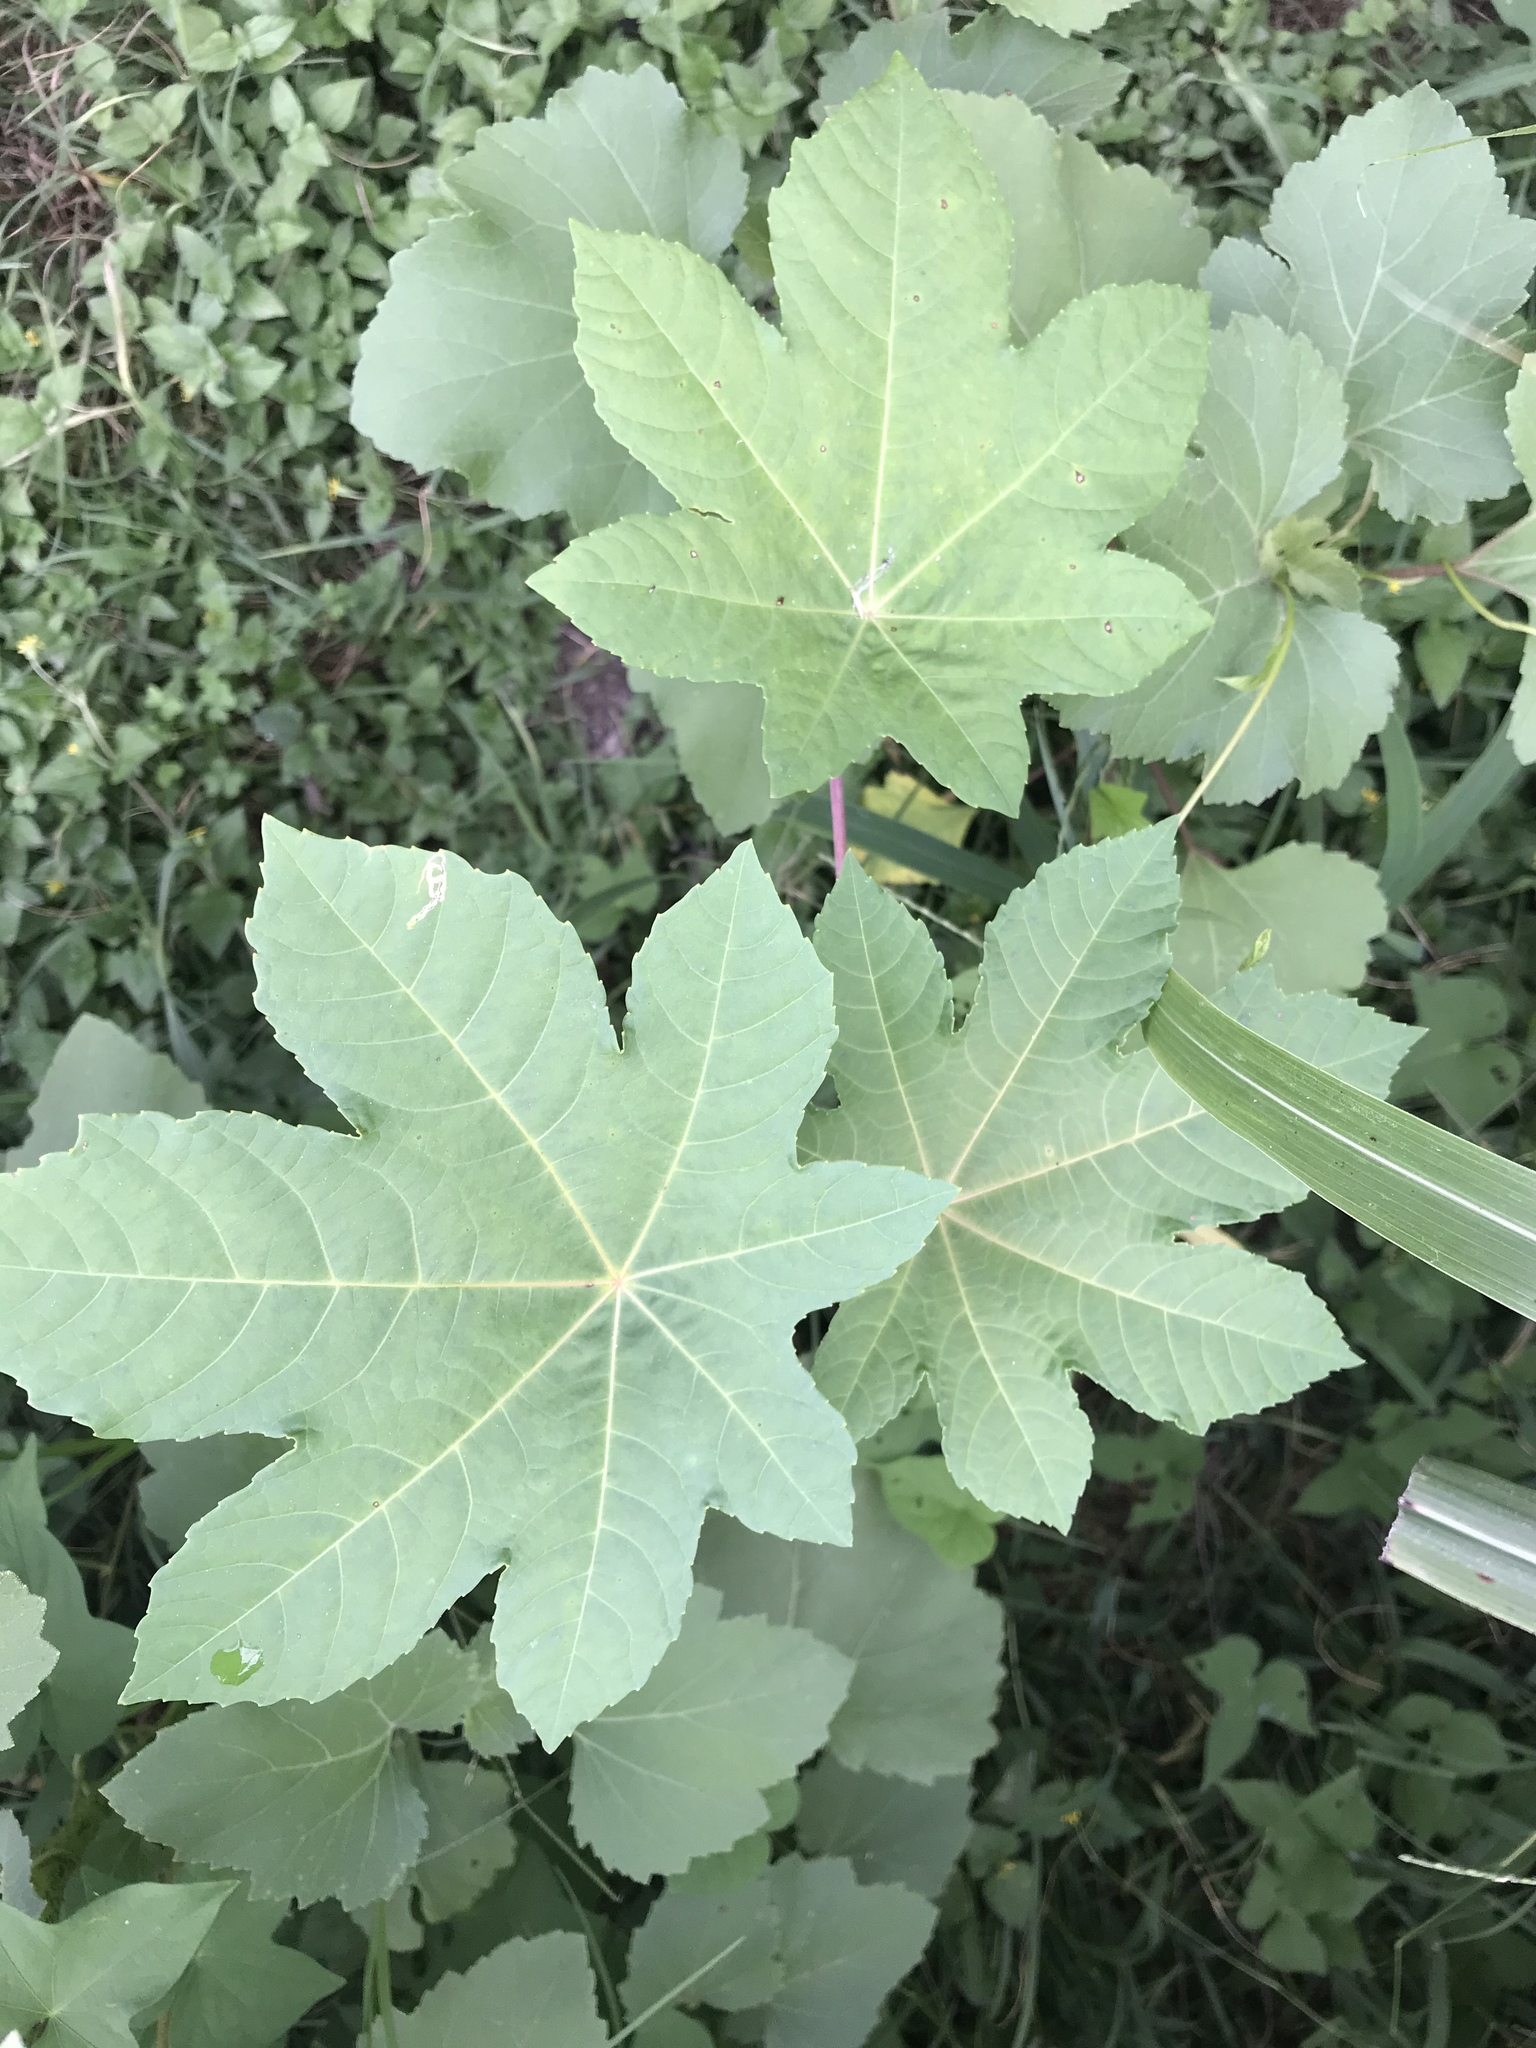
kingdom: Plantae
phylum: Tracheophyta
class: Magnoliopsida
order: Malpighiales
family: Euphorbiaceae
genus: Ricinus
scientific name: Ricinus communis
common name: Castor-oil-plant
